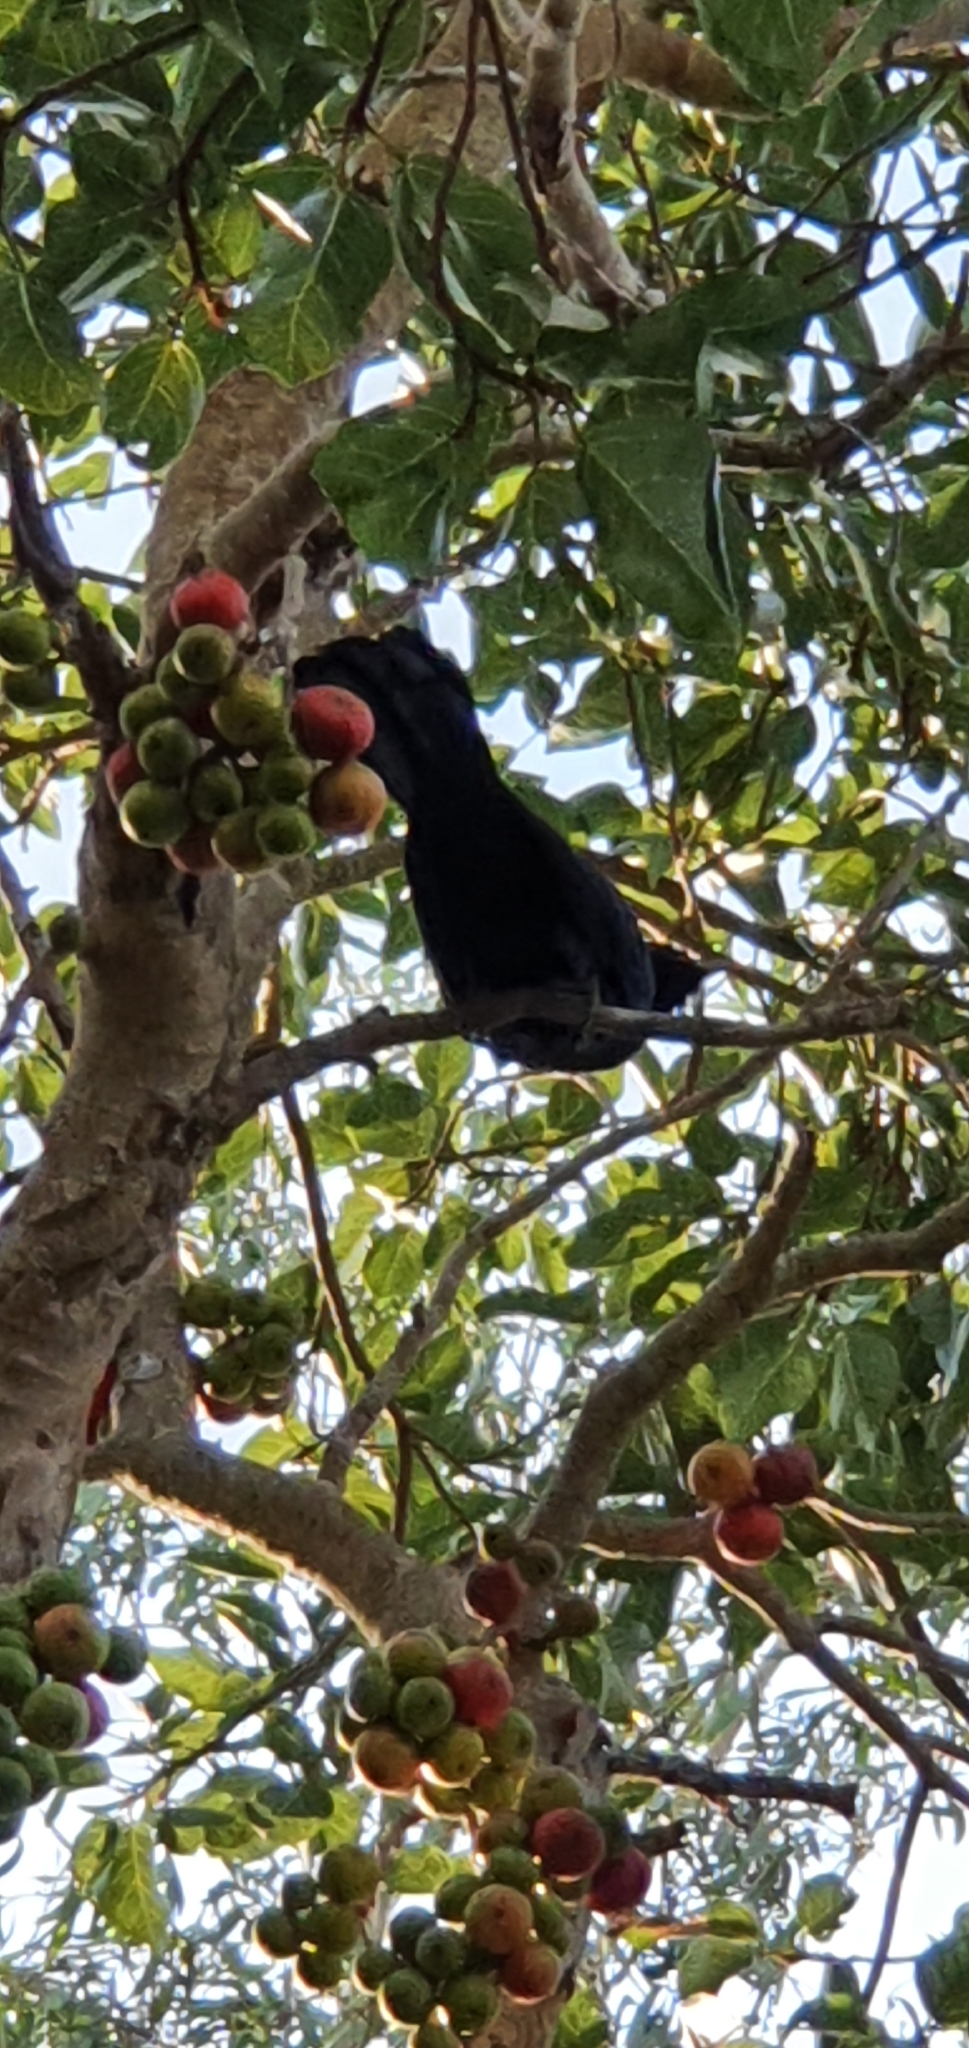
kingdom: Animalia
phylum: Chordata
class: Aves
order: Cuculiformes
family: Cuculidae
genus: Eudynamys
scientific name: Eudynamys orientalis
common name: Pacific koel
